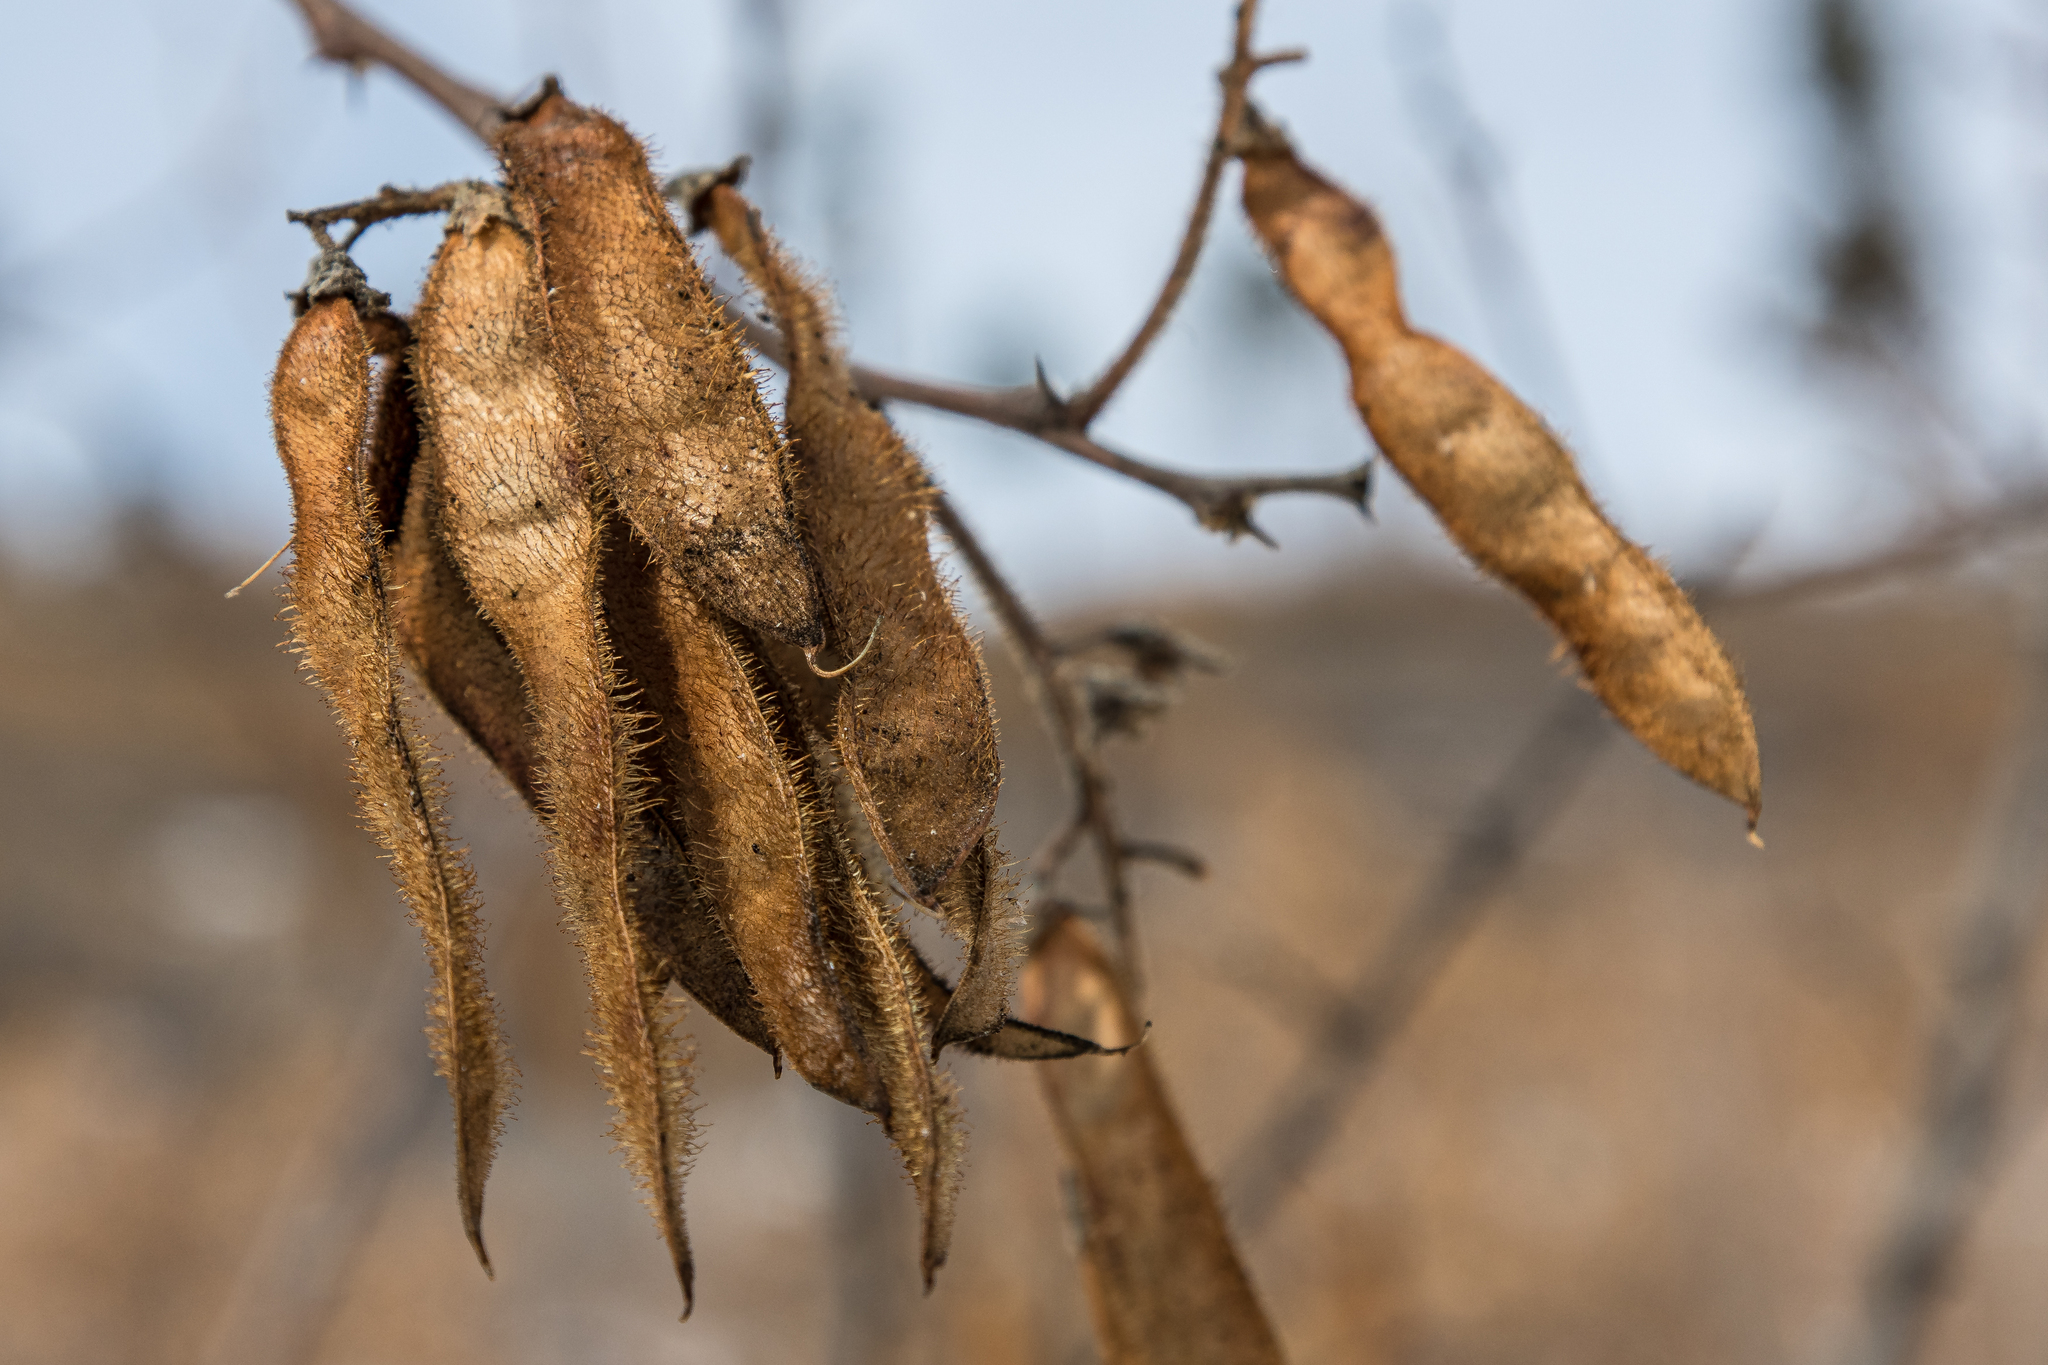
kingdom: Plantae
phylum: Tracheophyta
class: Magnoliopsida
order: Fabales
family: Fabaceae
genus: Robinia
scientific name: Robinia neomexicana
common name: New mexico locust
